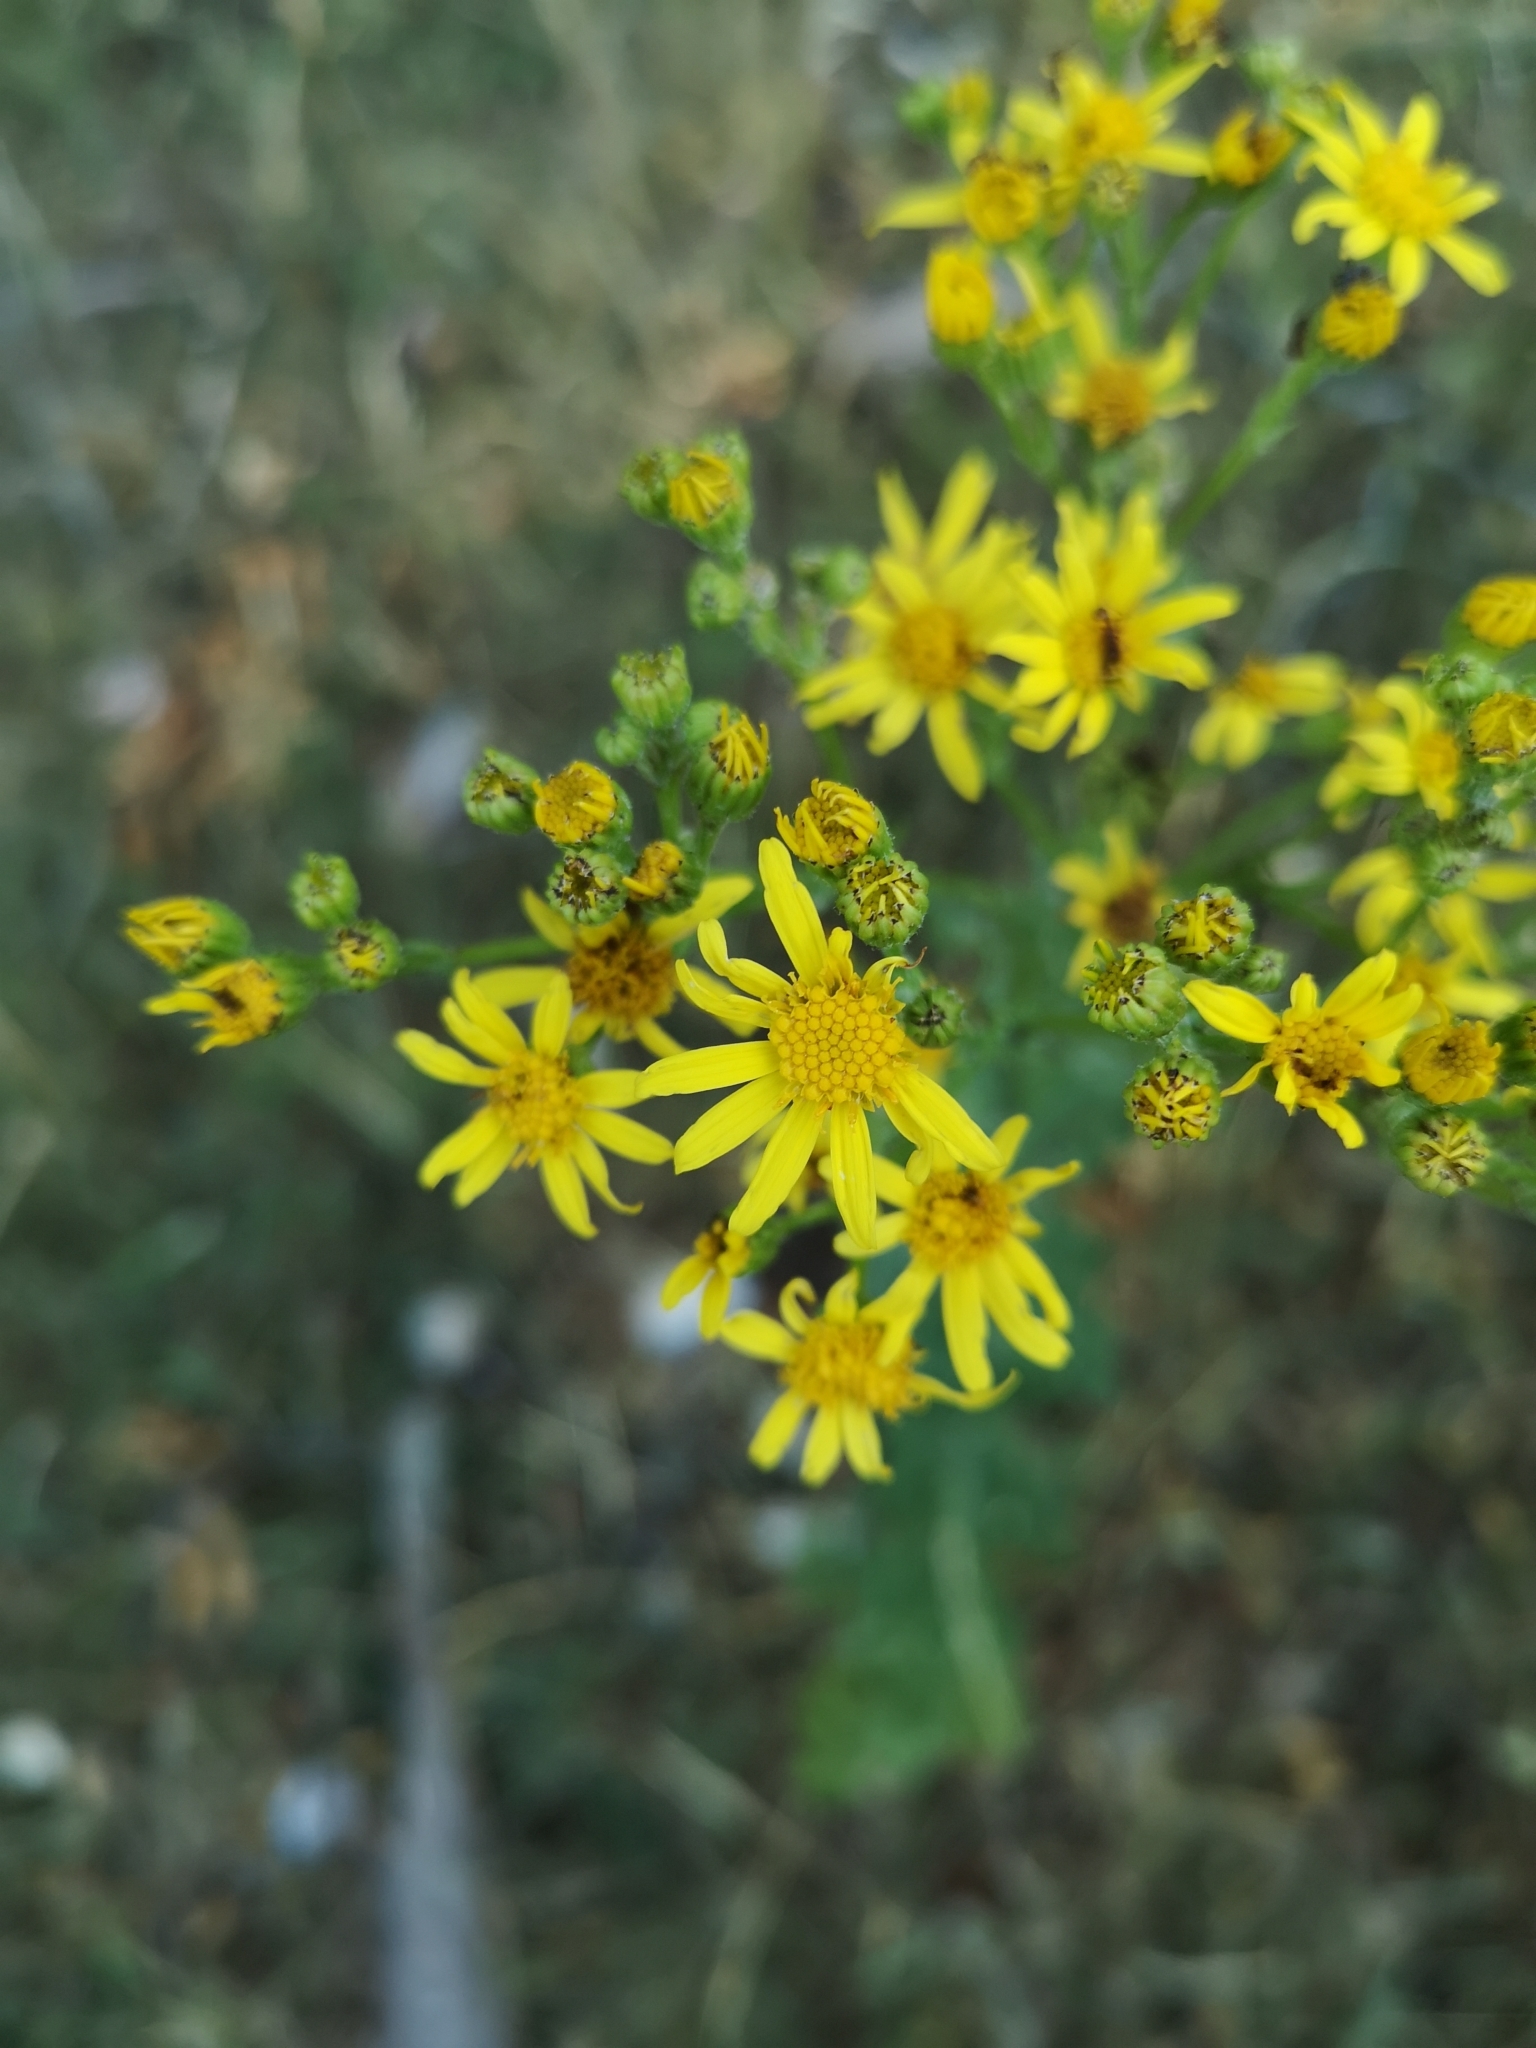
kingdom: Plantae
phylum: Tracheophyta
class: Magnoliopsida
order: Asterales
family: Asteraceae
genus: Jacobaea
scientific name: Jacobaea vulgaris
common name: Stinking willie
